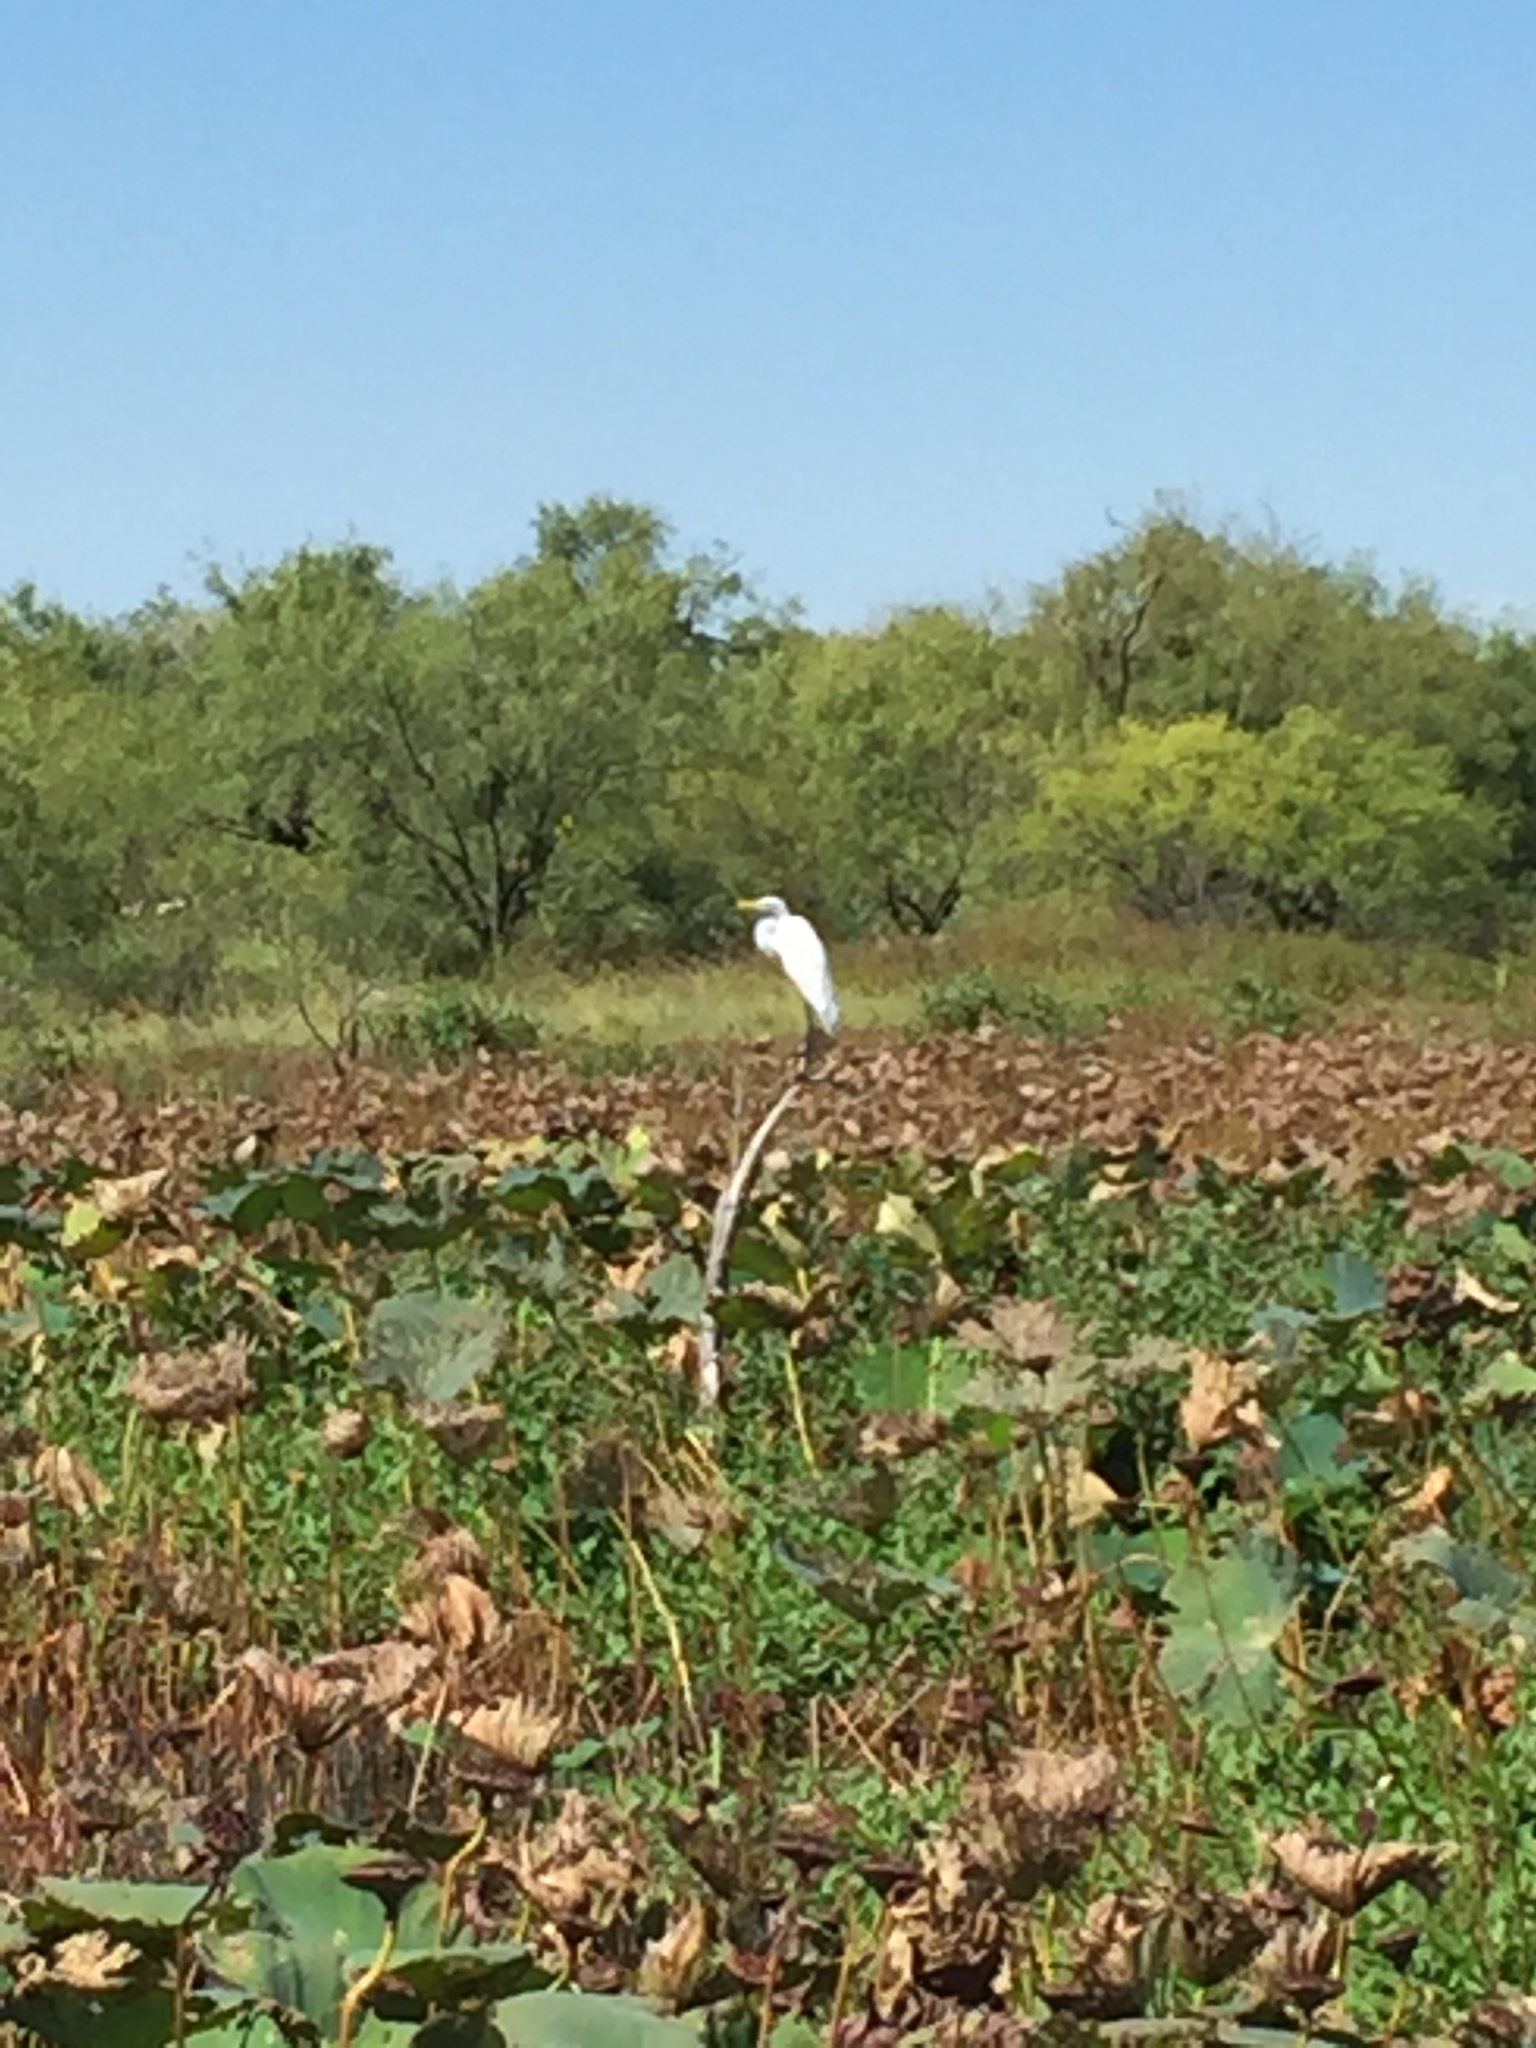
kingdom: Animalia
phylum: Chordata
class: Aves
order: Pelecaniformes
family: Ardeidae
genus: Ardea
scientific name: Ardea alba
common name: Great egret
